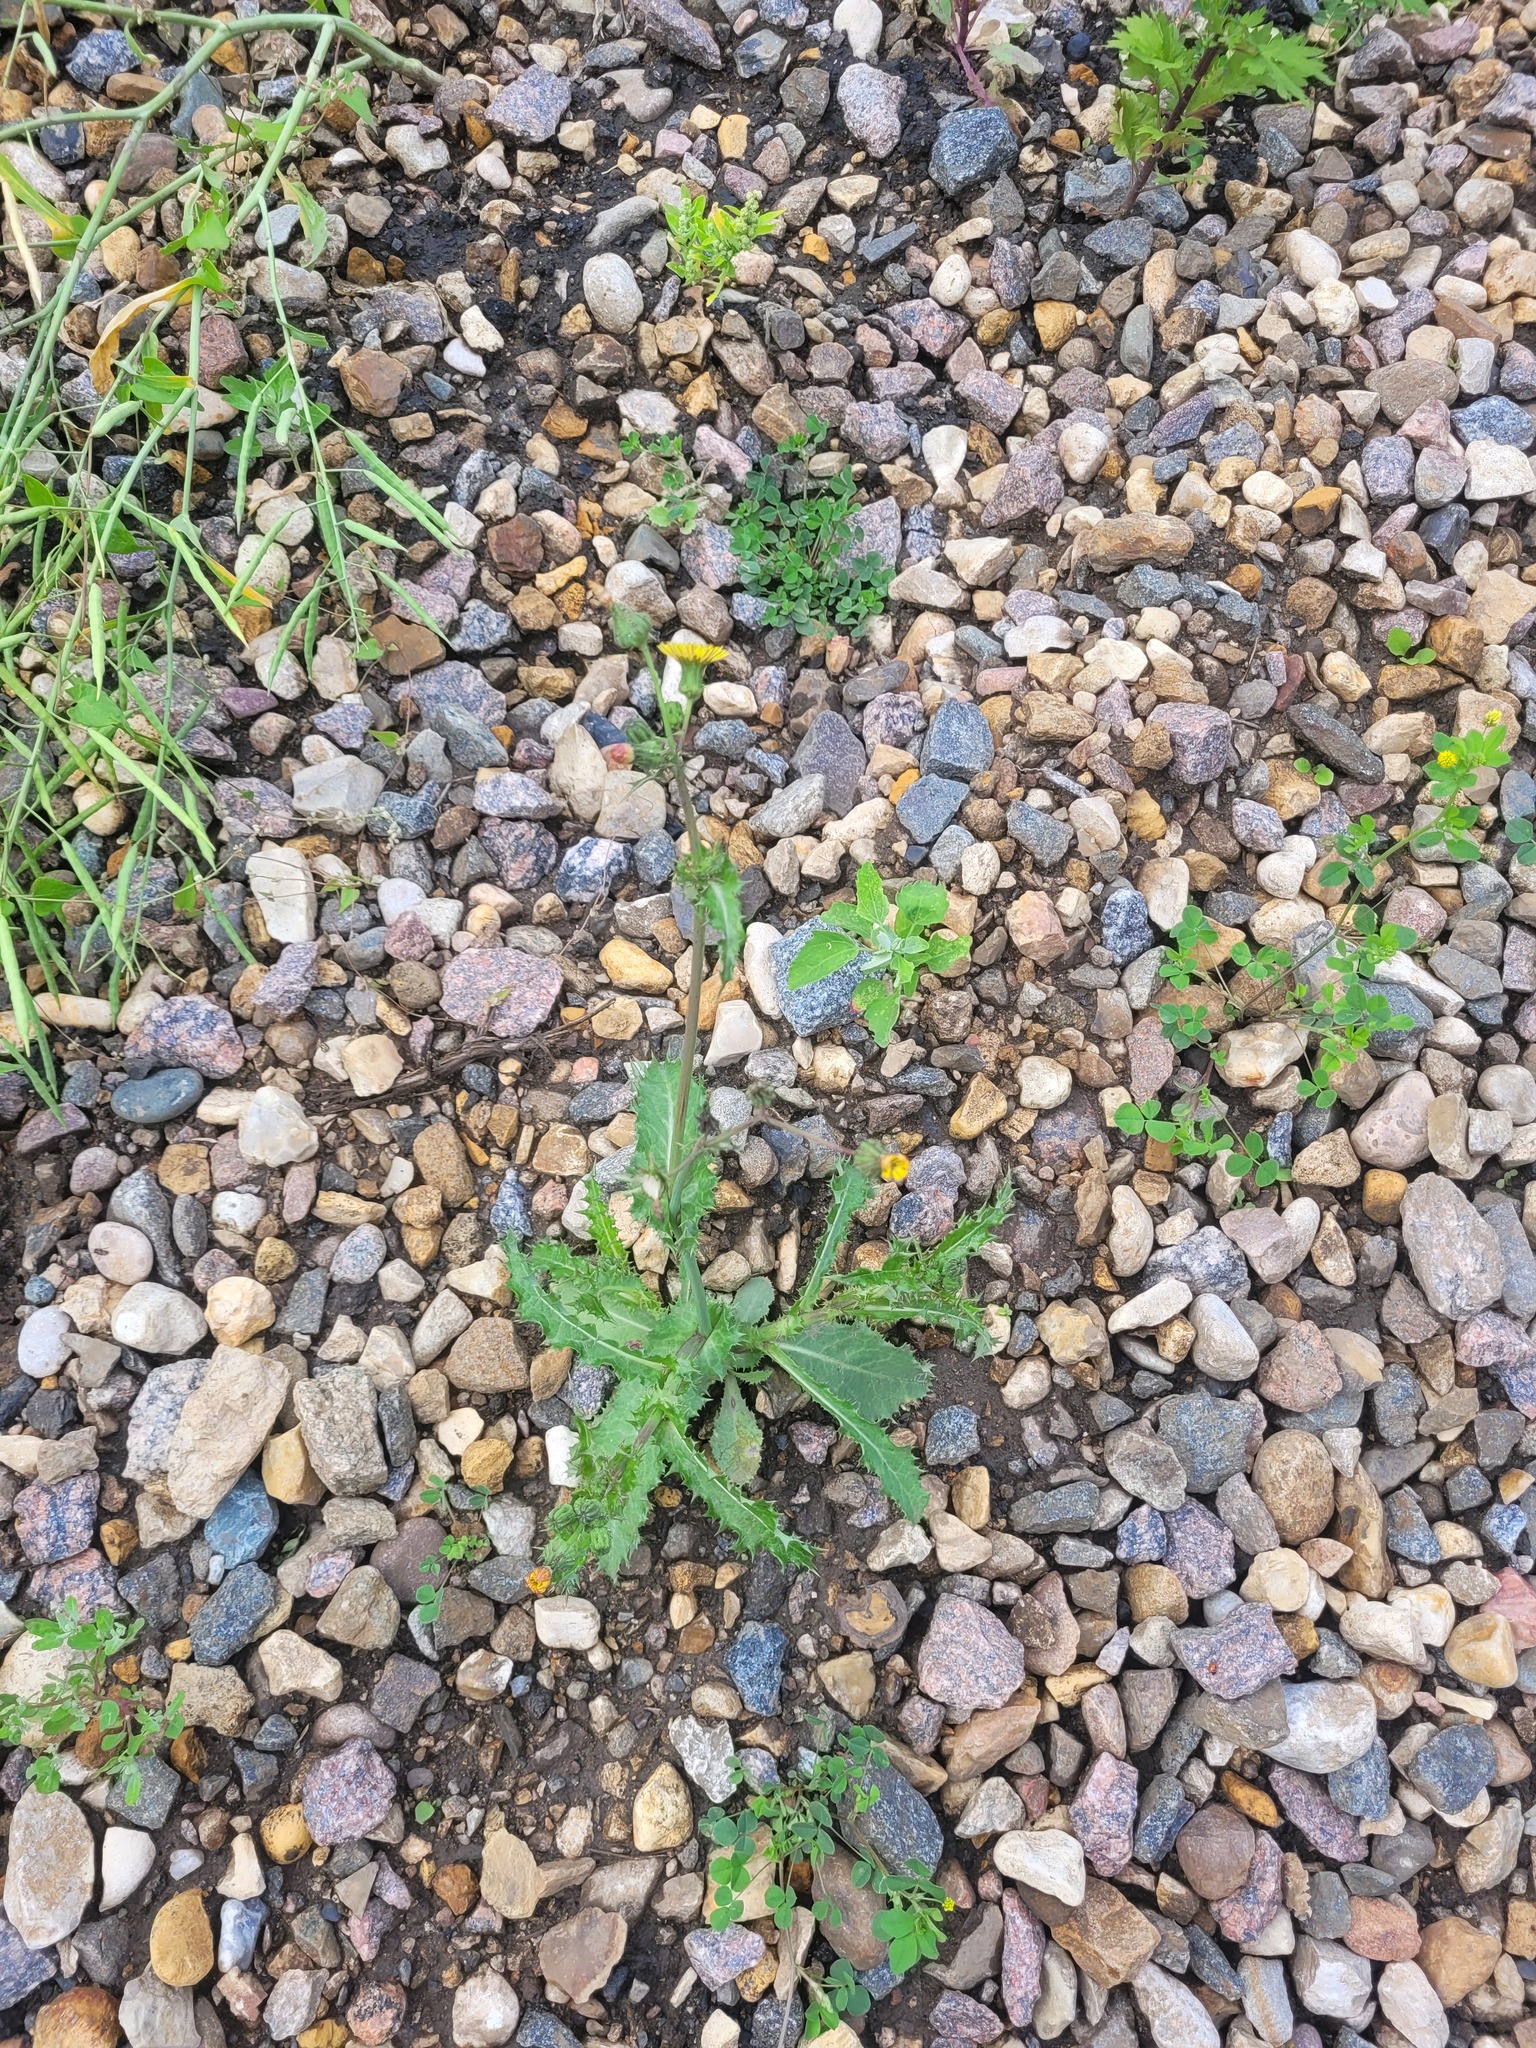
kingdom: Plantae
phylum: Tracheophyta
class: Magnoliopsida
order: Asterales
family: Asteraceae
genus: Sonchus
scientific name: Sonchus asper
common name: Prickly sow-thistle
